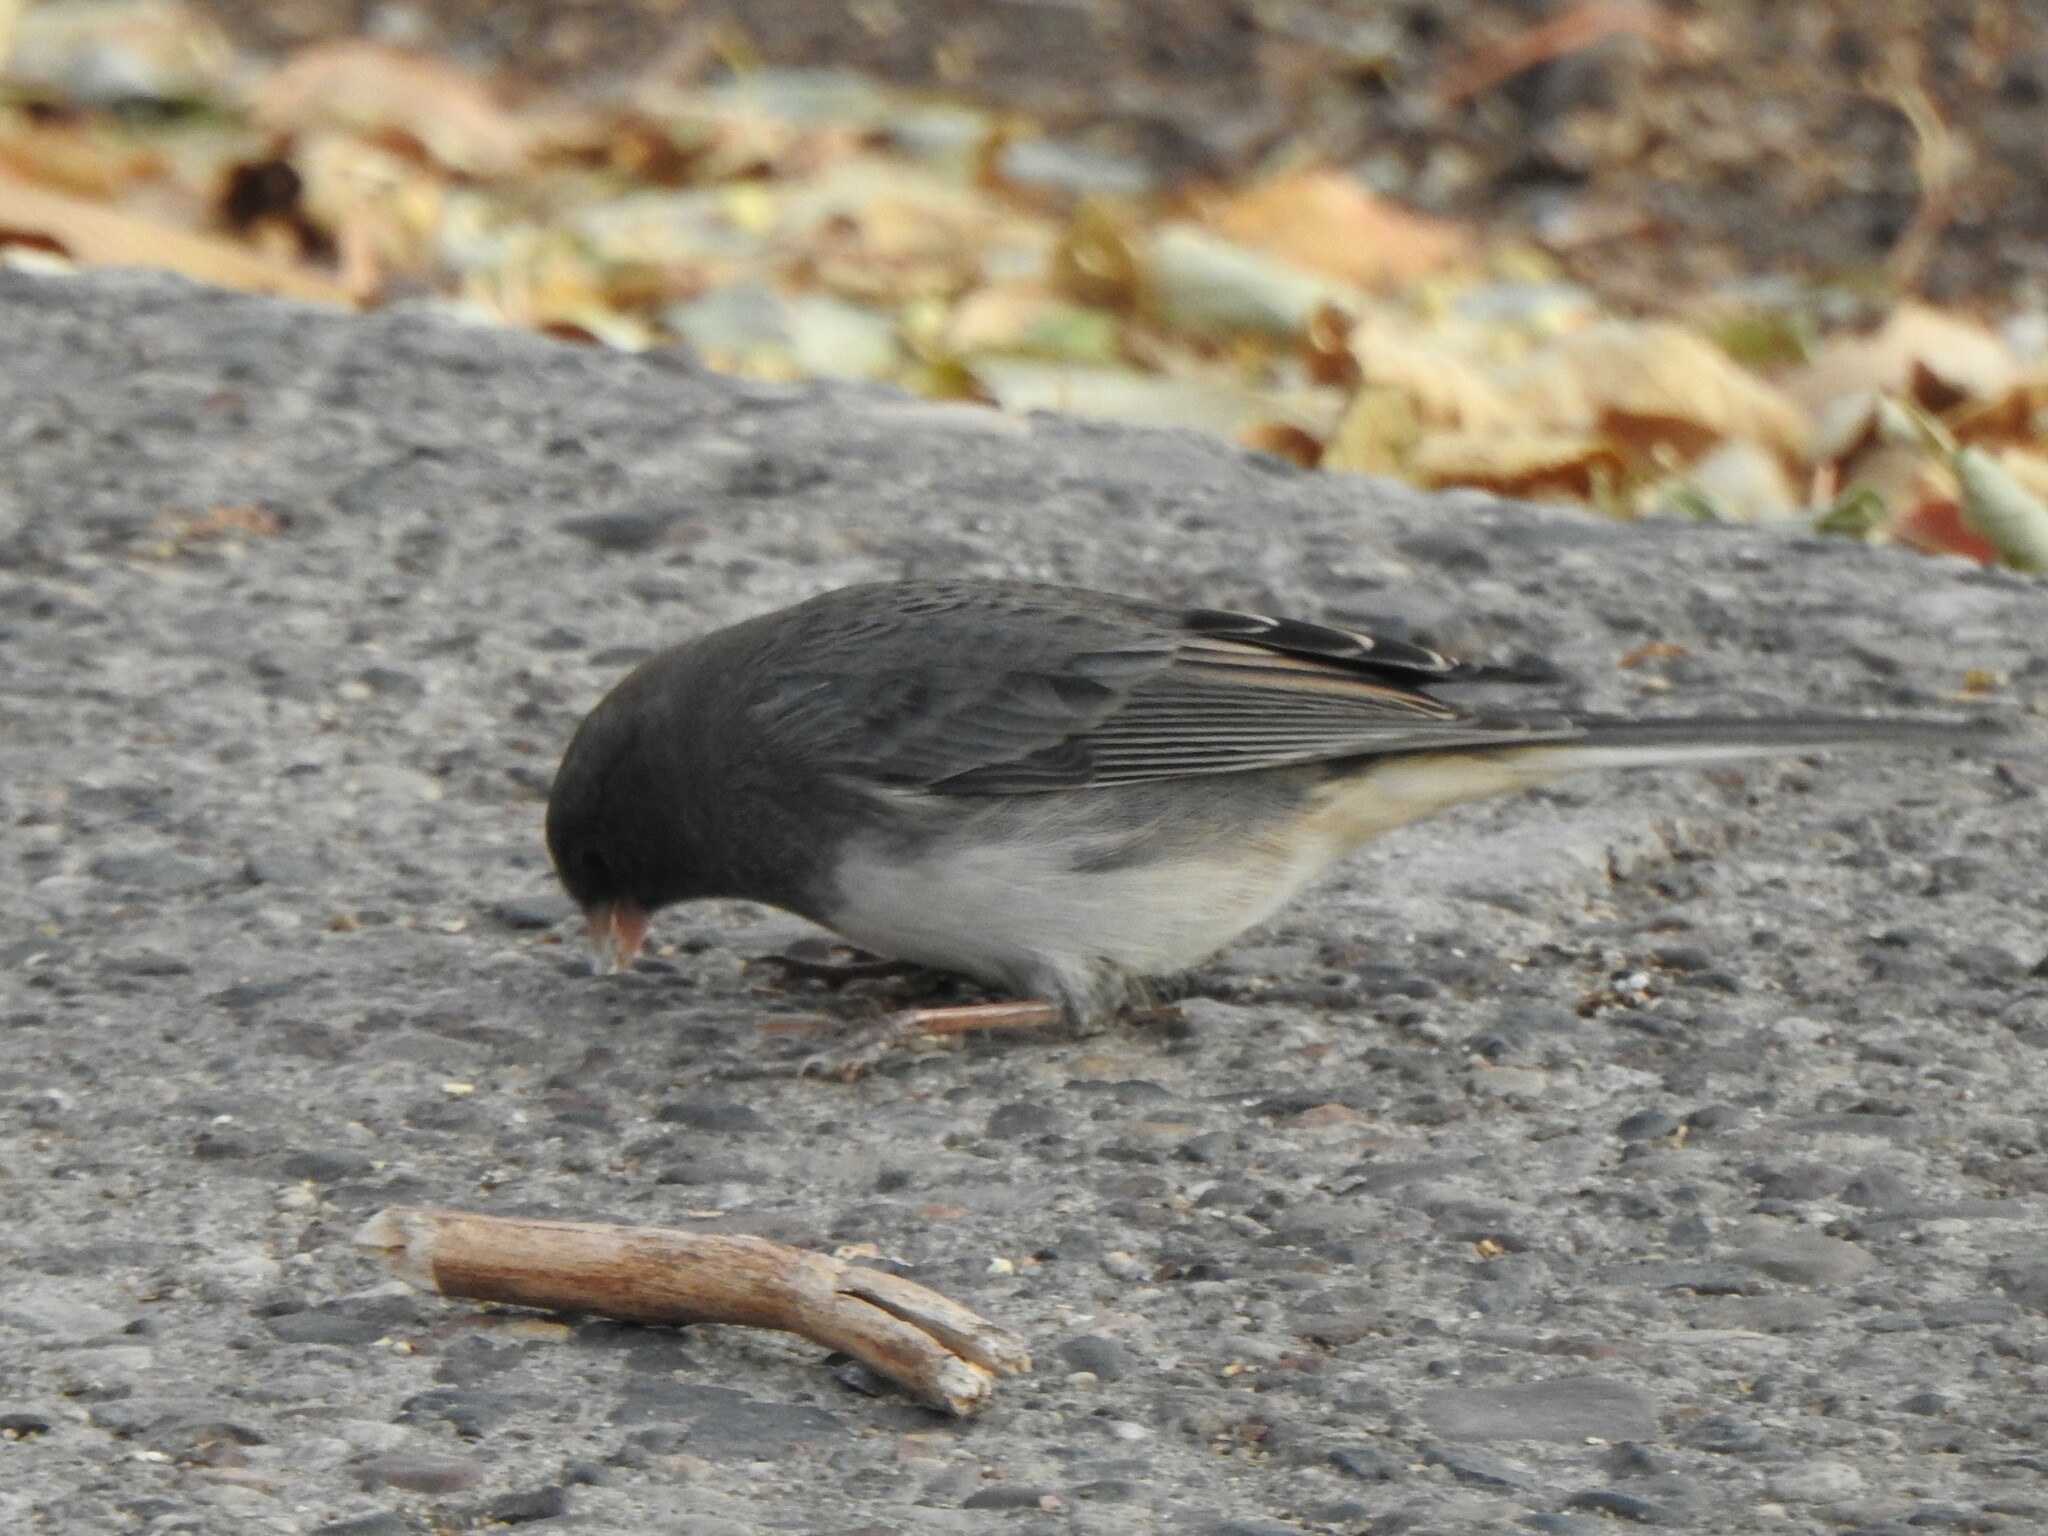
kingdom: Animalia
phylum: Chordata
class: Aves
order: Passeriformes
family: Passerellidae
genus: Junco
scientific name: Junco hyemalis
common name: Dark-eyed junco
